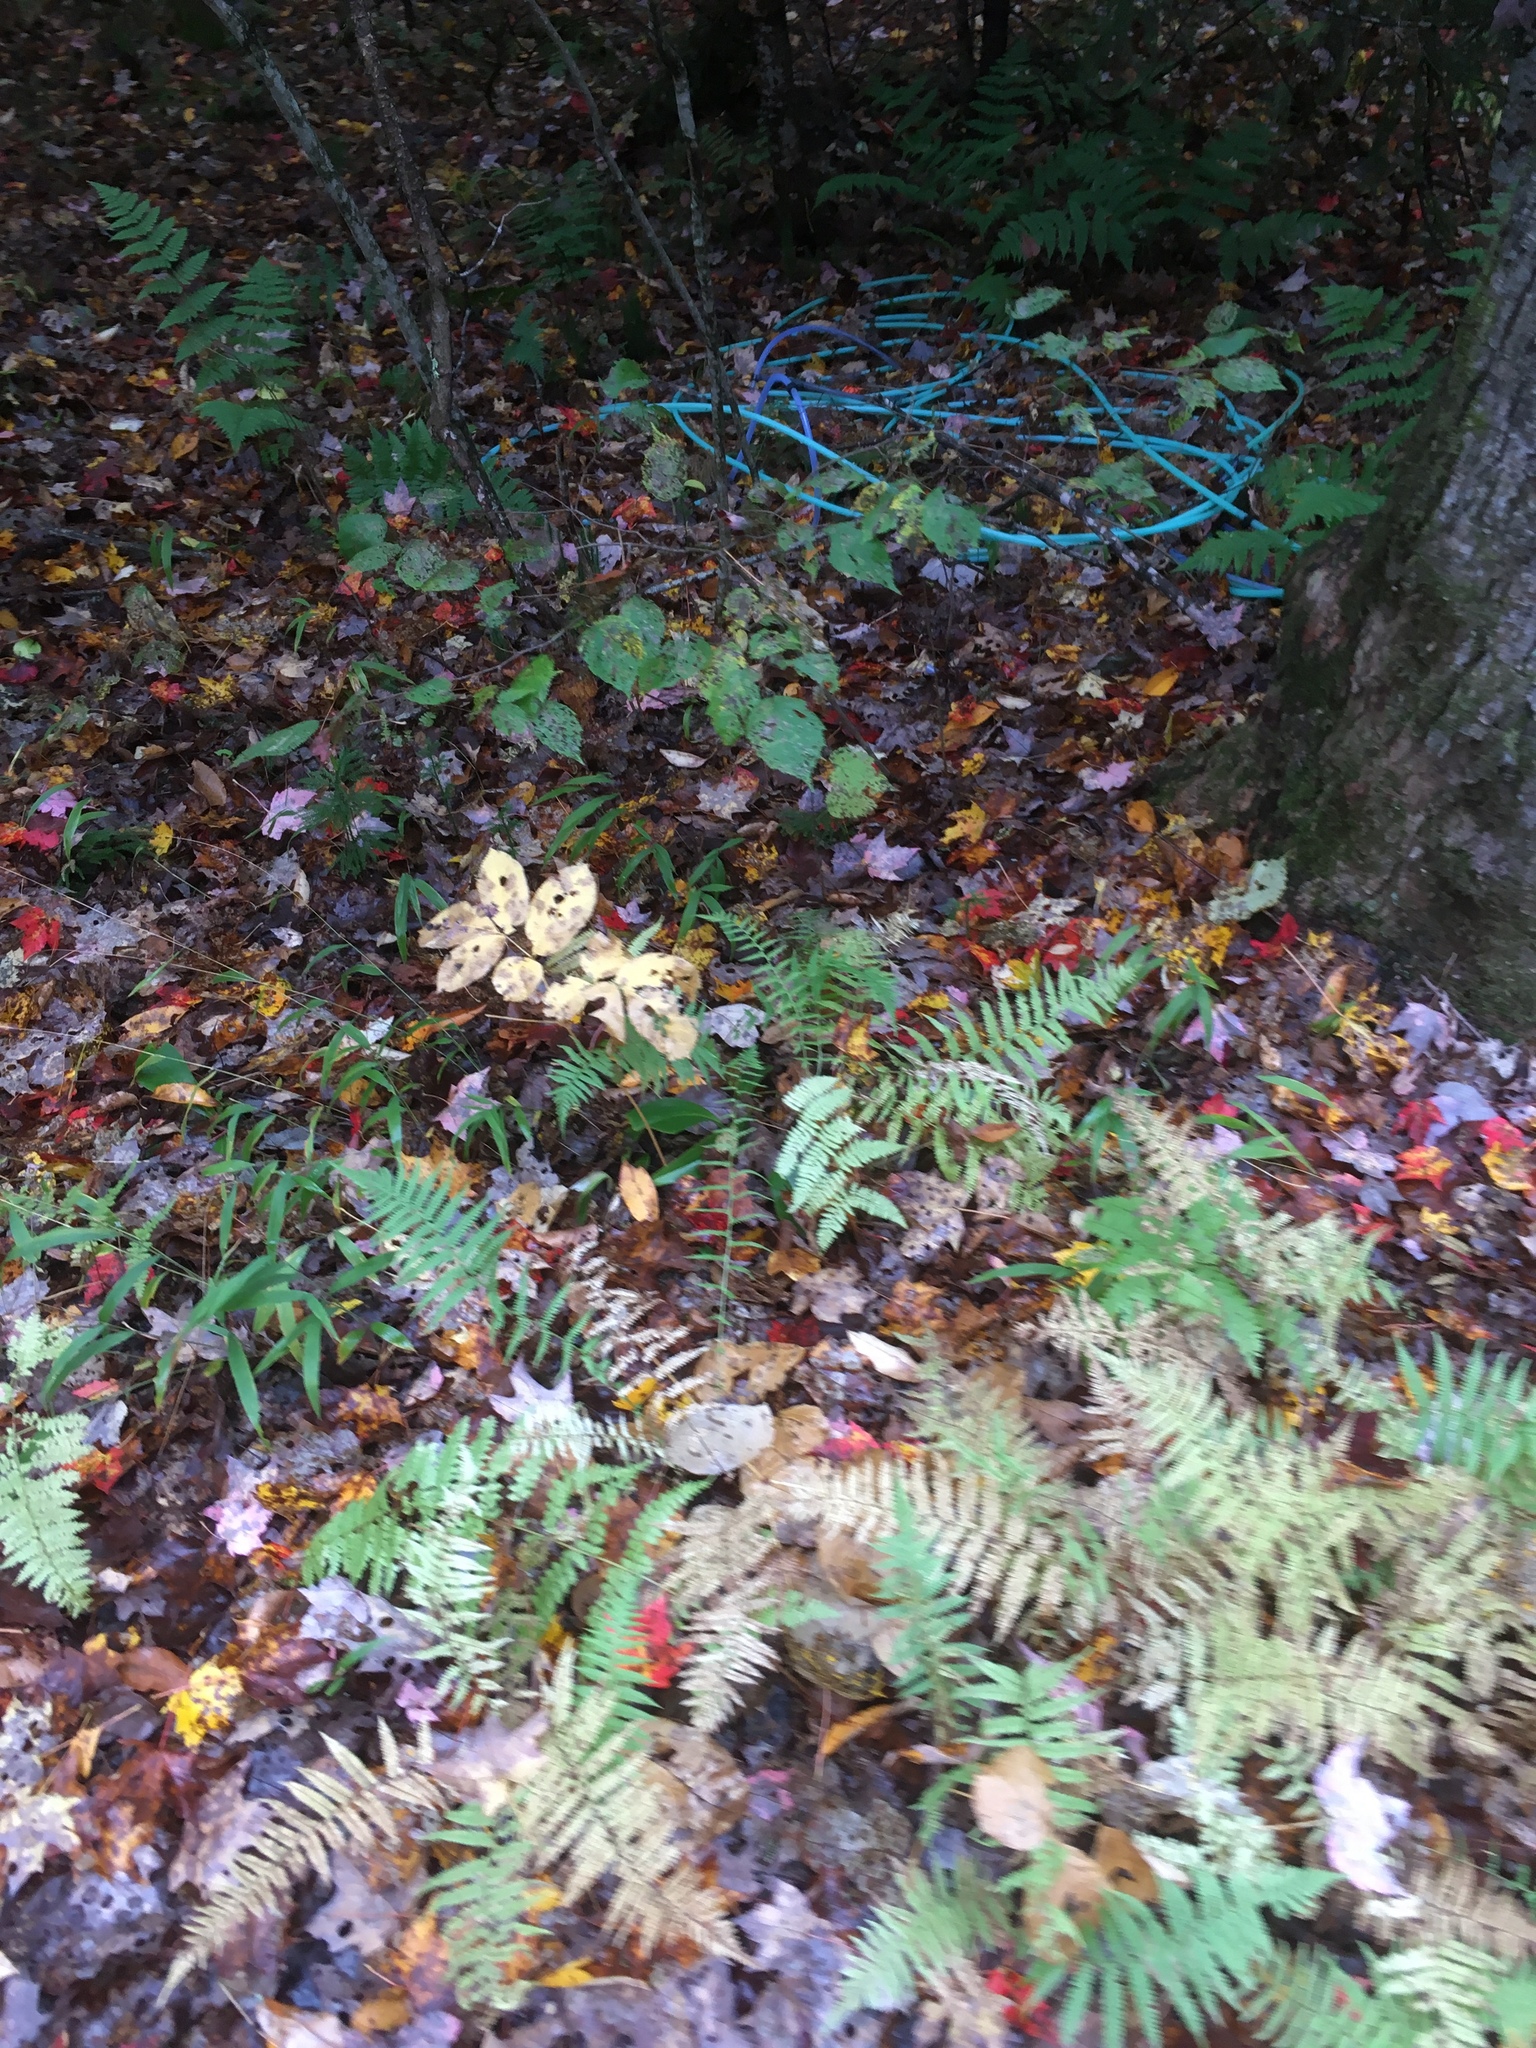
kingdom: Plantae
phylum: Tracheophyta
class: Magnoliopsida
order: Apiales
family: Araliaceae
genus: Aralia
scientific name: Aralia nudicaulis
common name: Wild sarsaparilla
